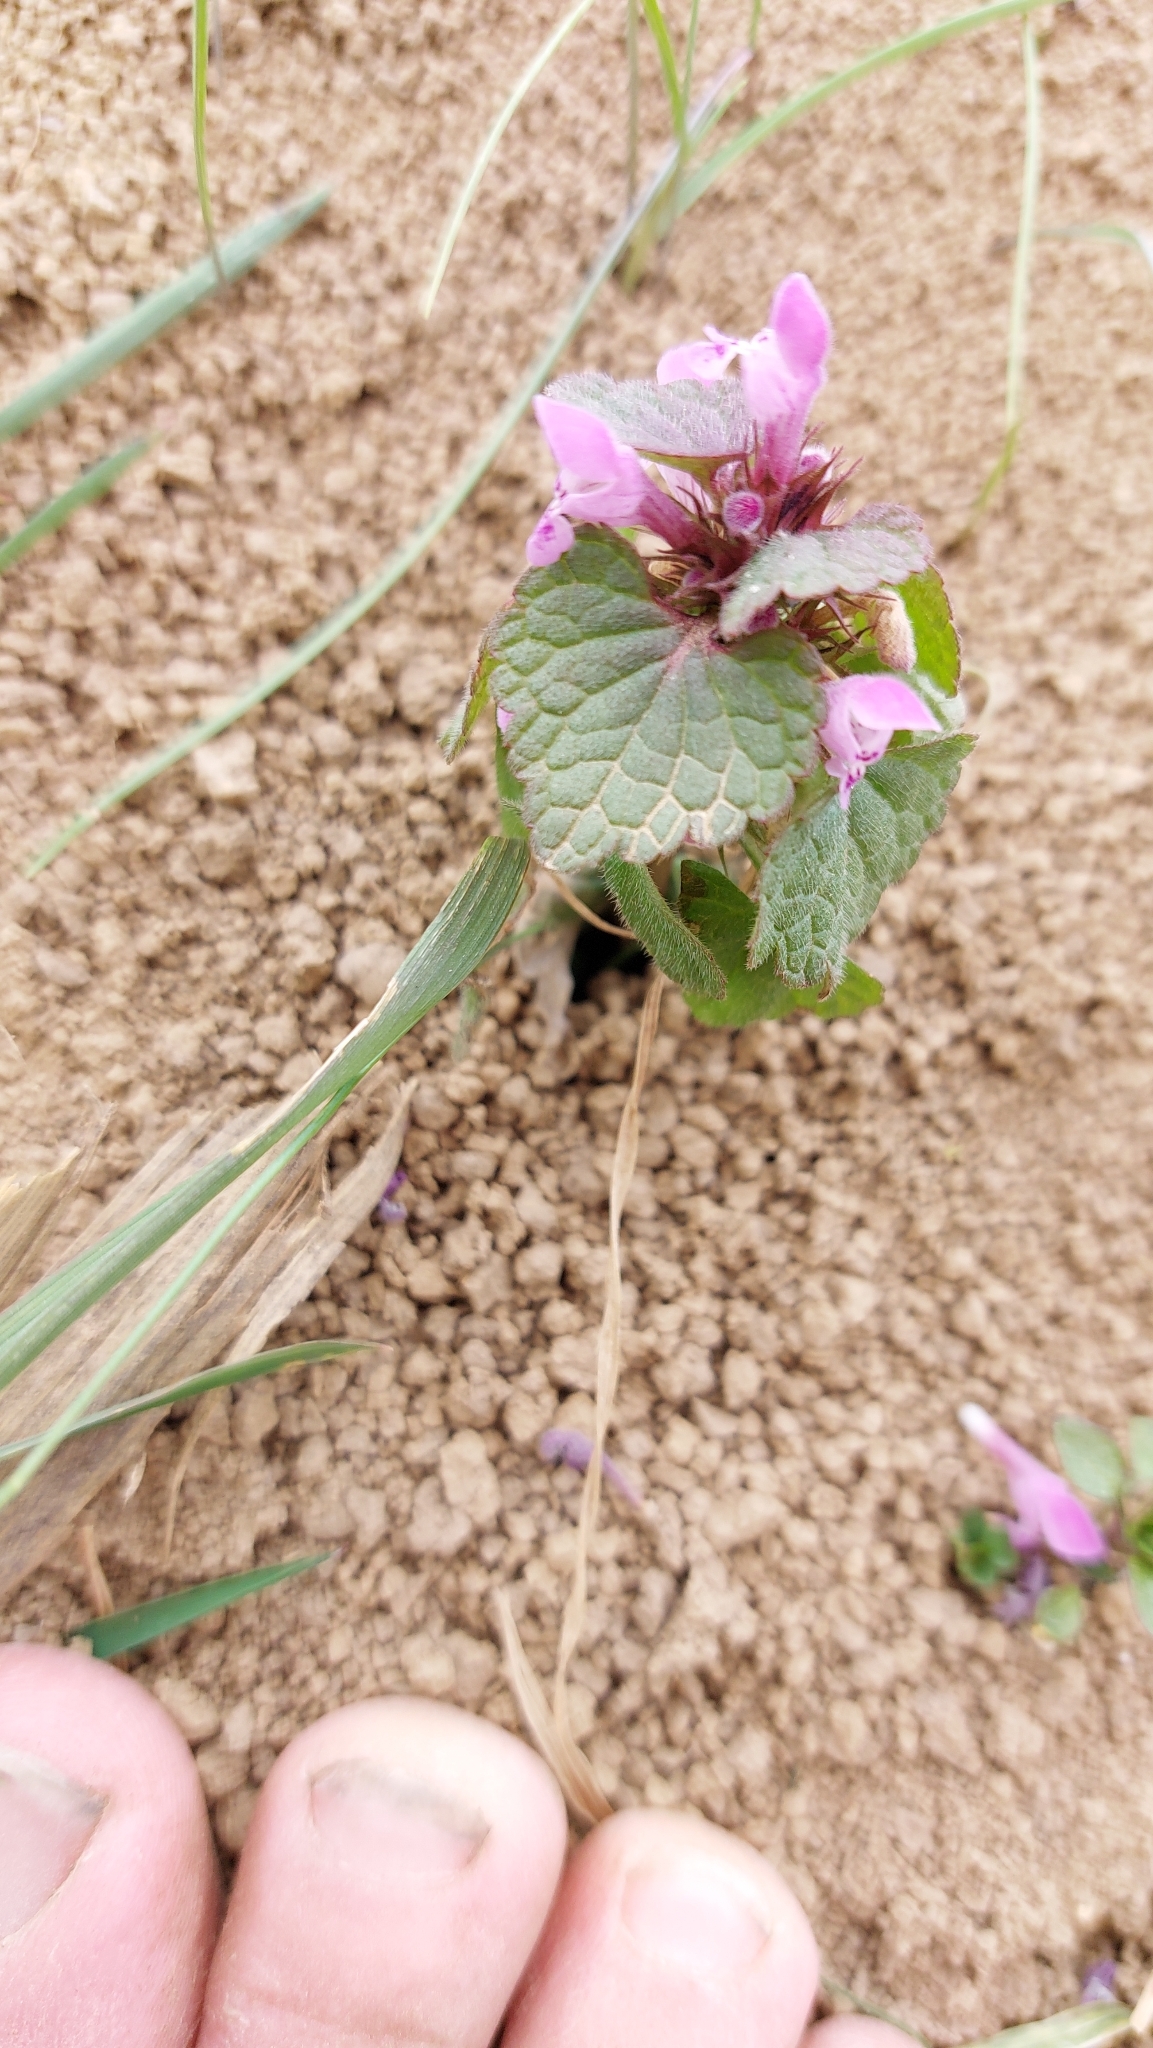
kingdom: Plantae
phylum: Tracheophyta
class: Magnoliopsida
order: Lamiales
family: Lamiaceae
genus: Lamium
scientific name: Lamium purpureum
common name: Red dead-nettle
